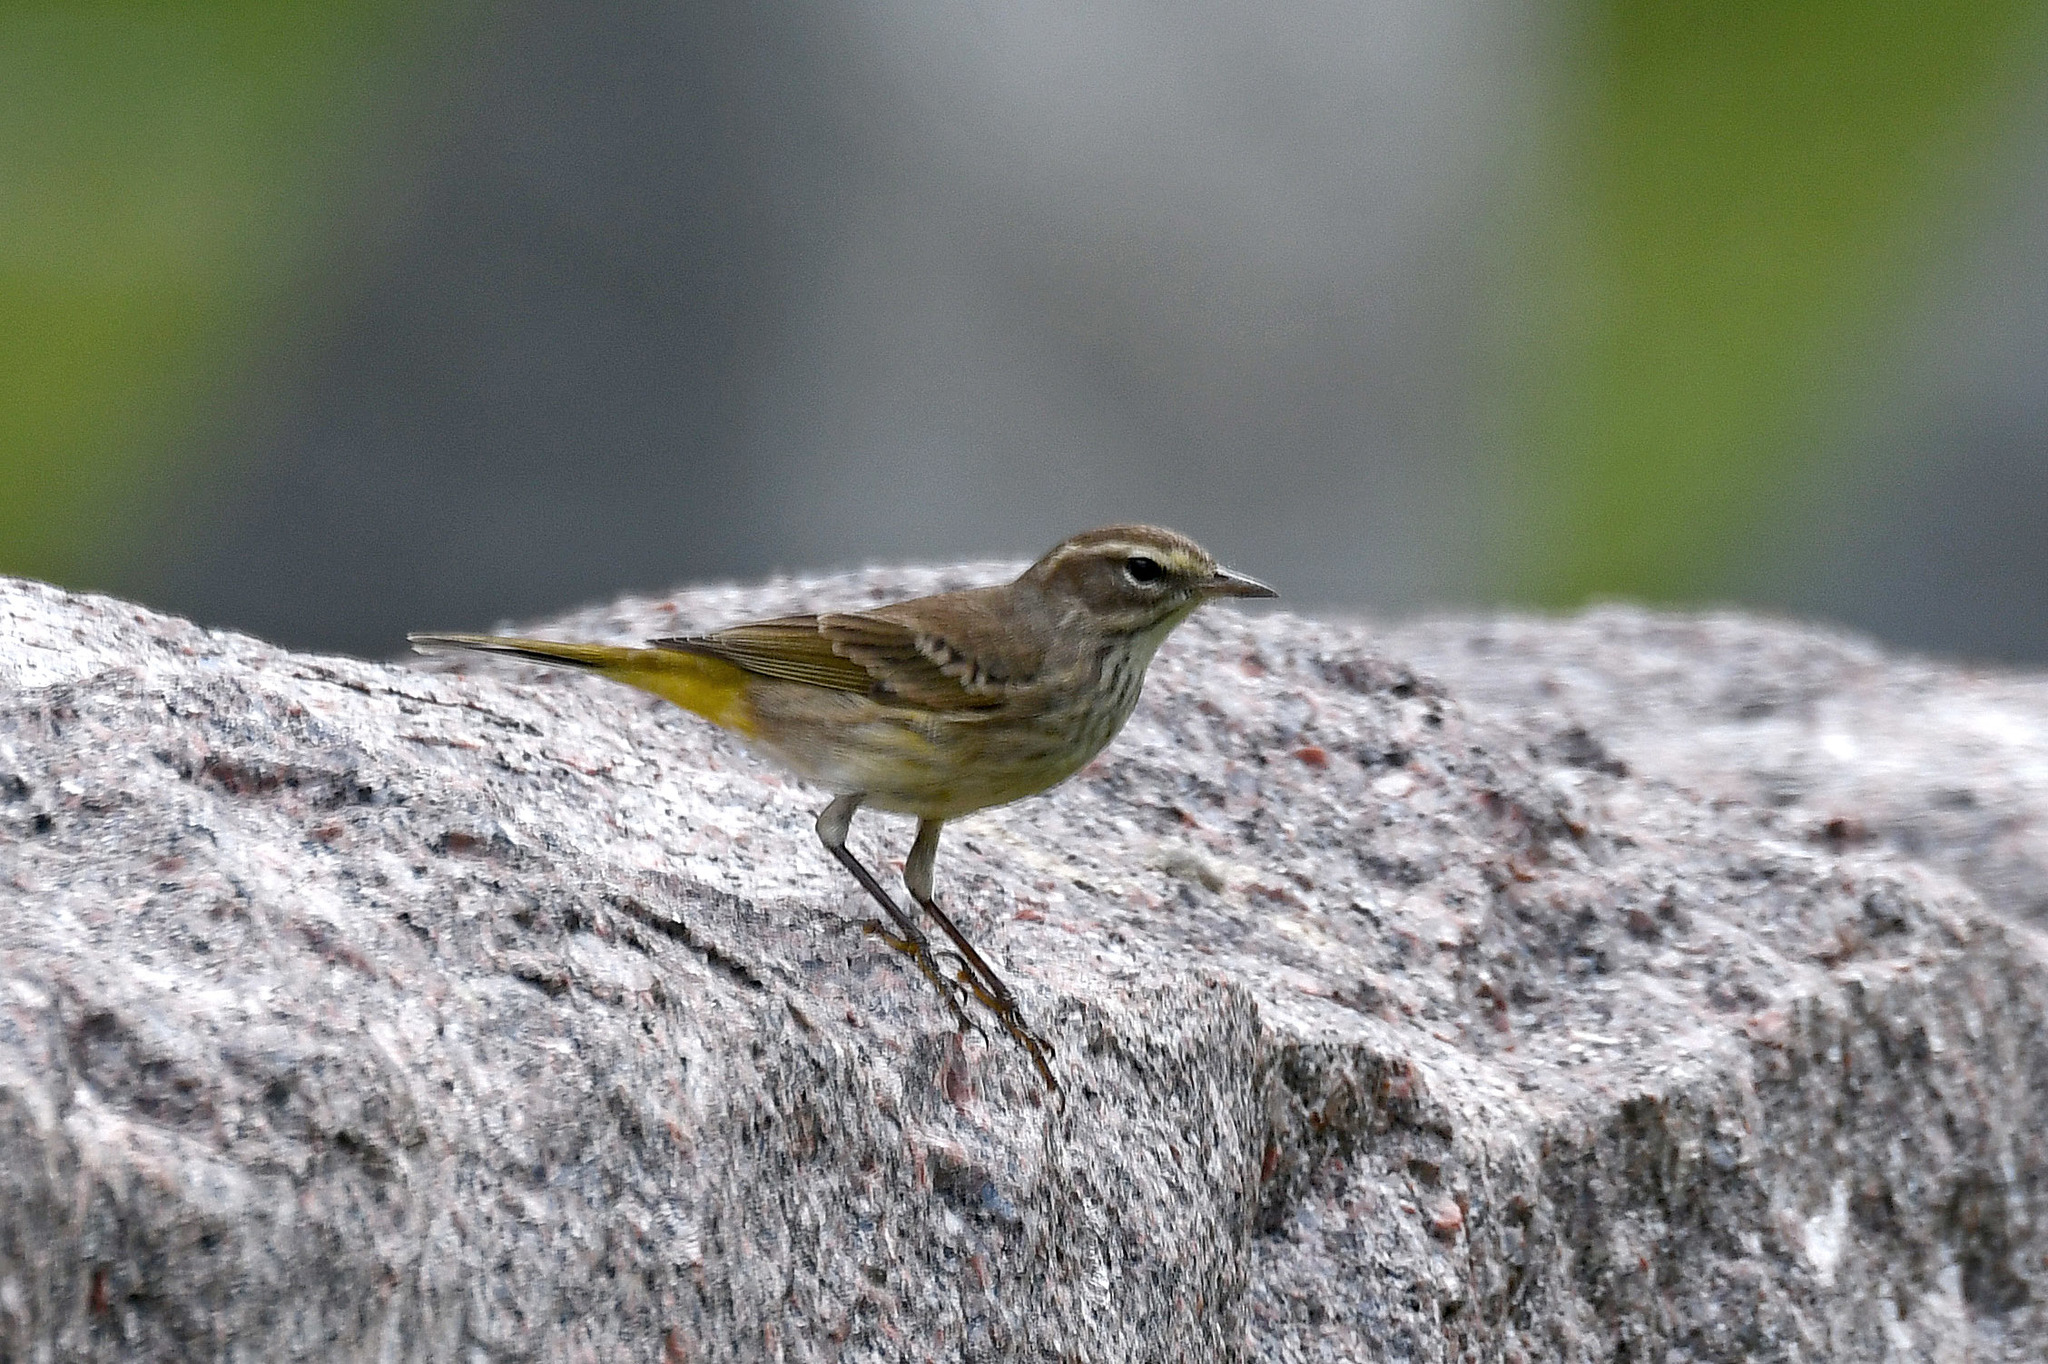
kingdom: Animalia
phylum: Chordata
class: Aves
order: Passeriformes
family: Parulidae
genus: Setophaga
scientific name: Setophaga palmarum
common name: Palm warbler
